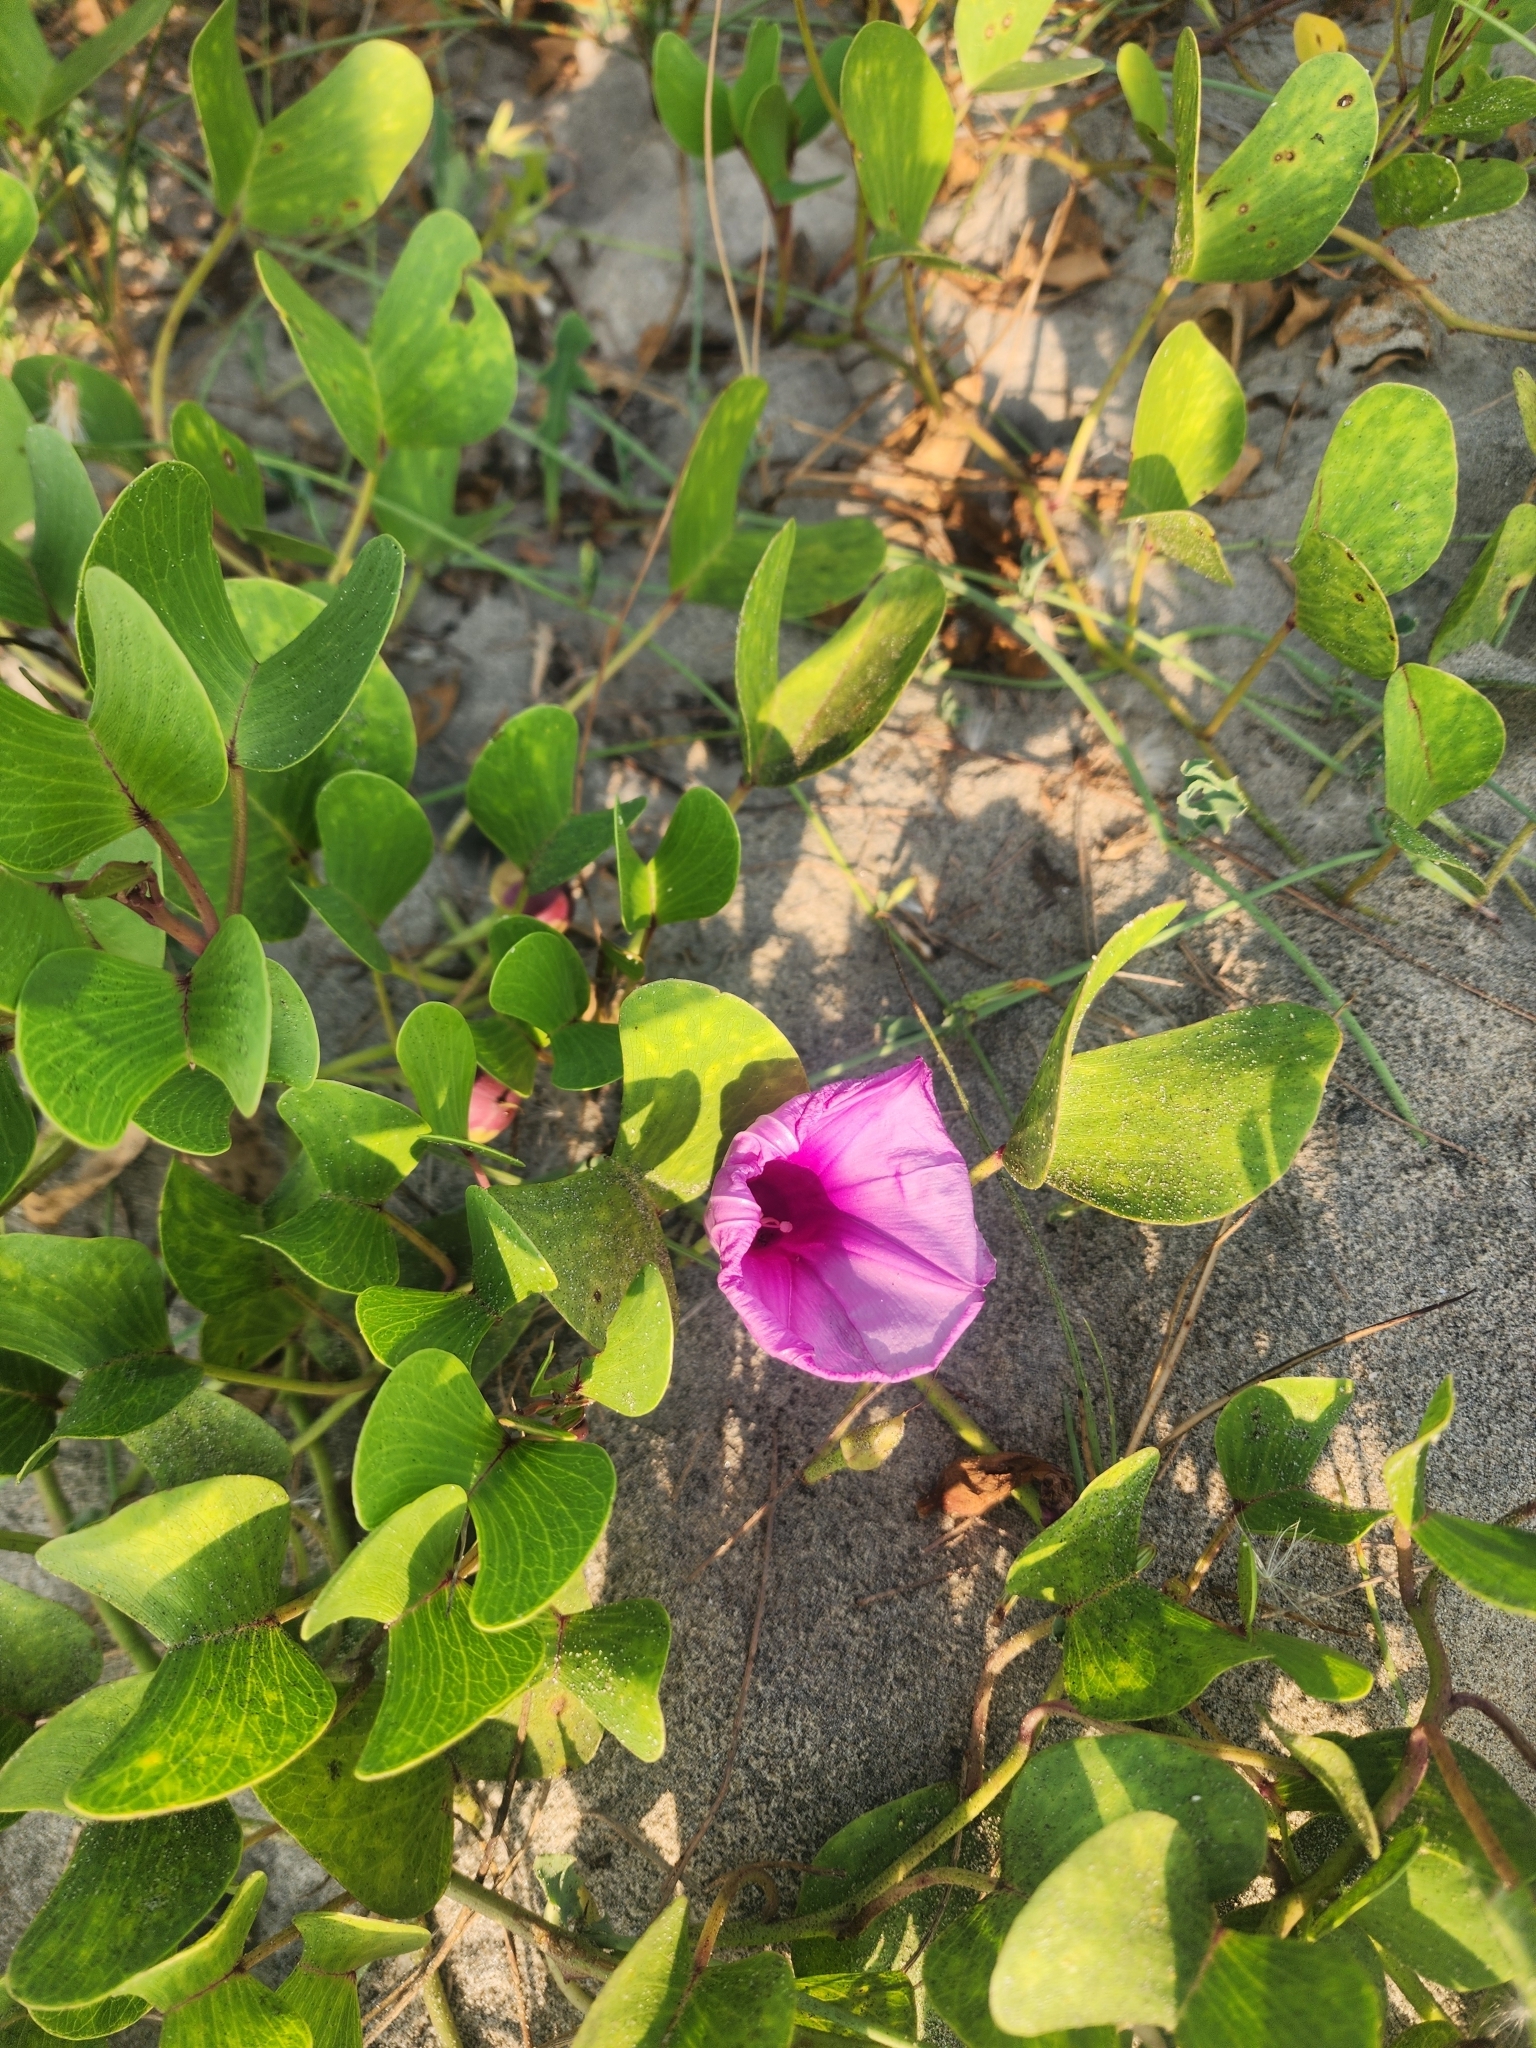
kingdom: Plantae
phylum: Tracheophyta
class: Magnoliopsida
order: Solanales
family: Convolvulaceae
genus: Ipomoea
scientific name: Ipomoea pes-caprae
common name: Beach morning glory
